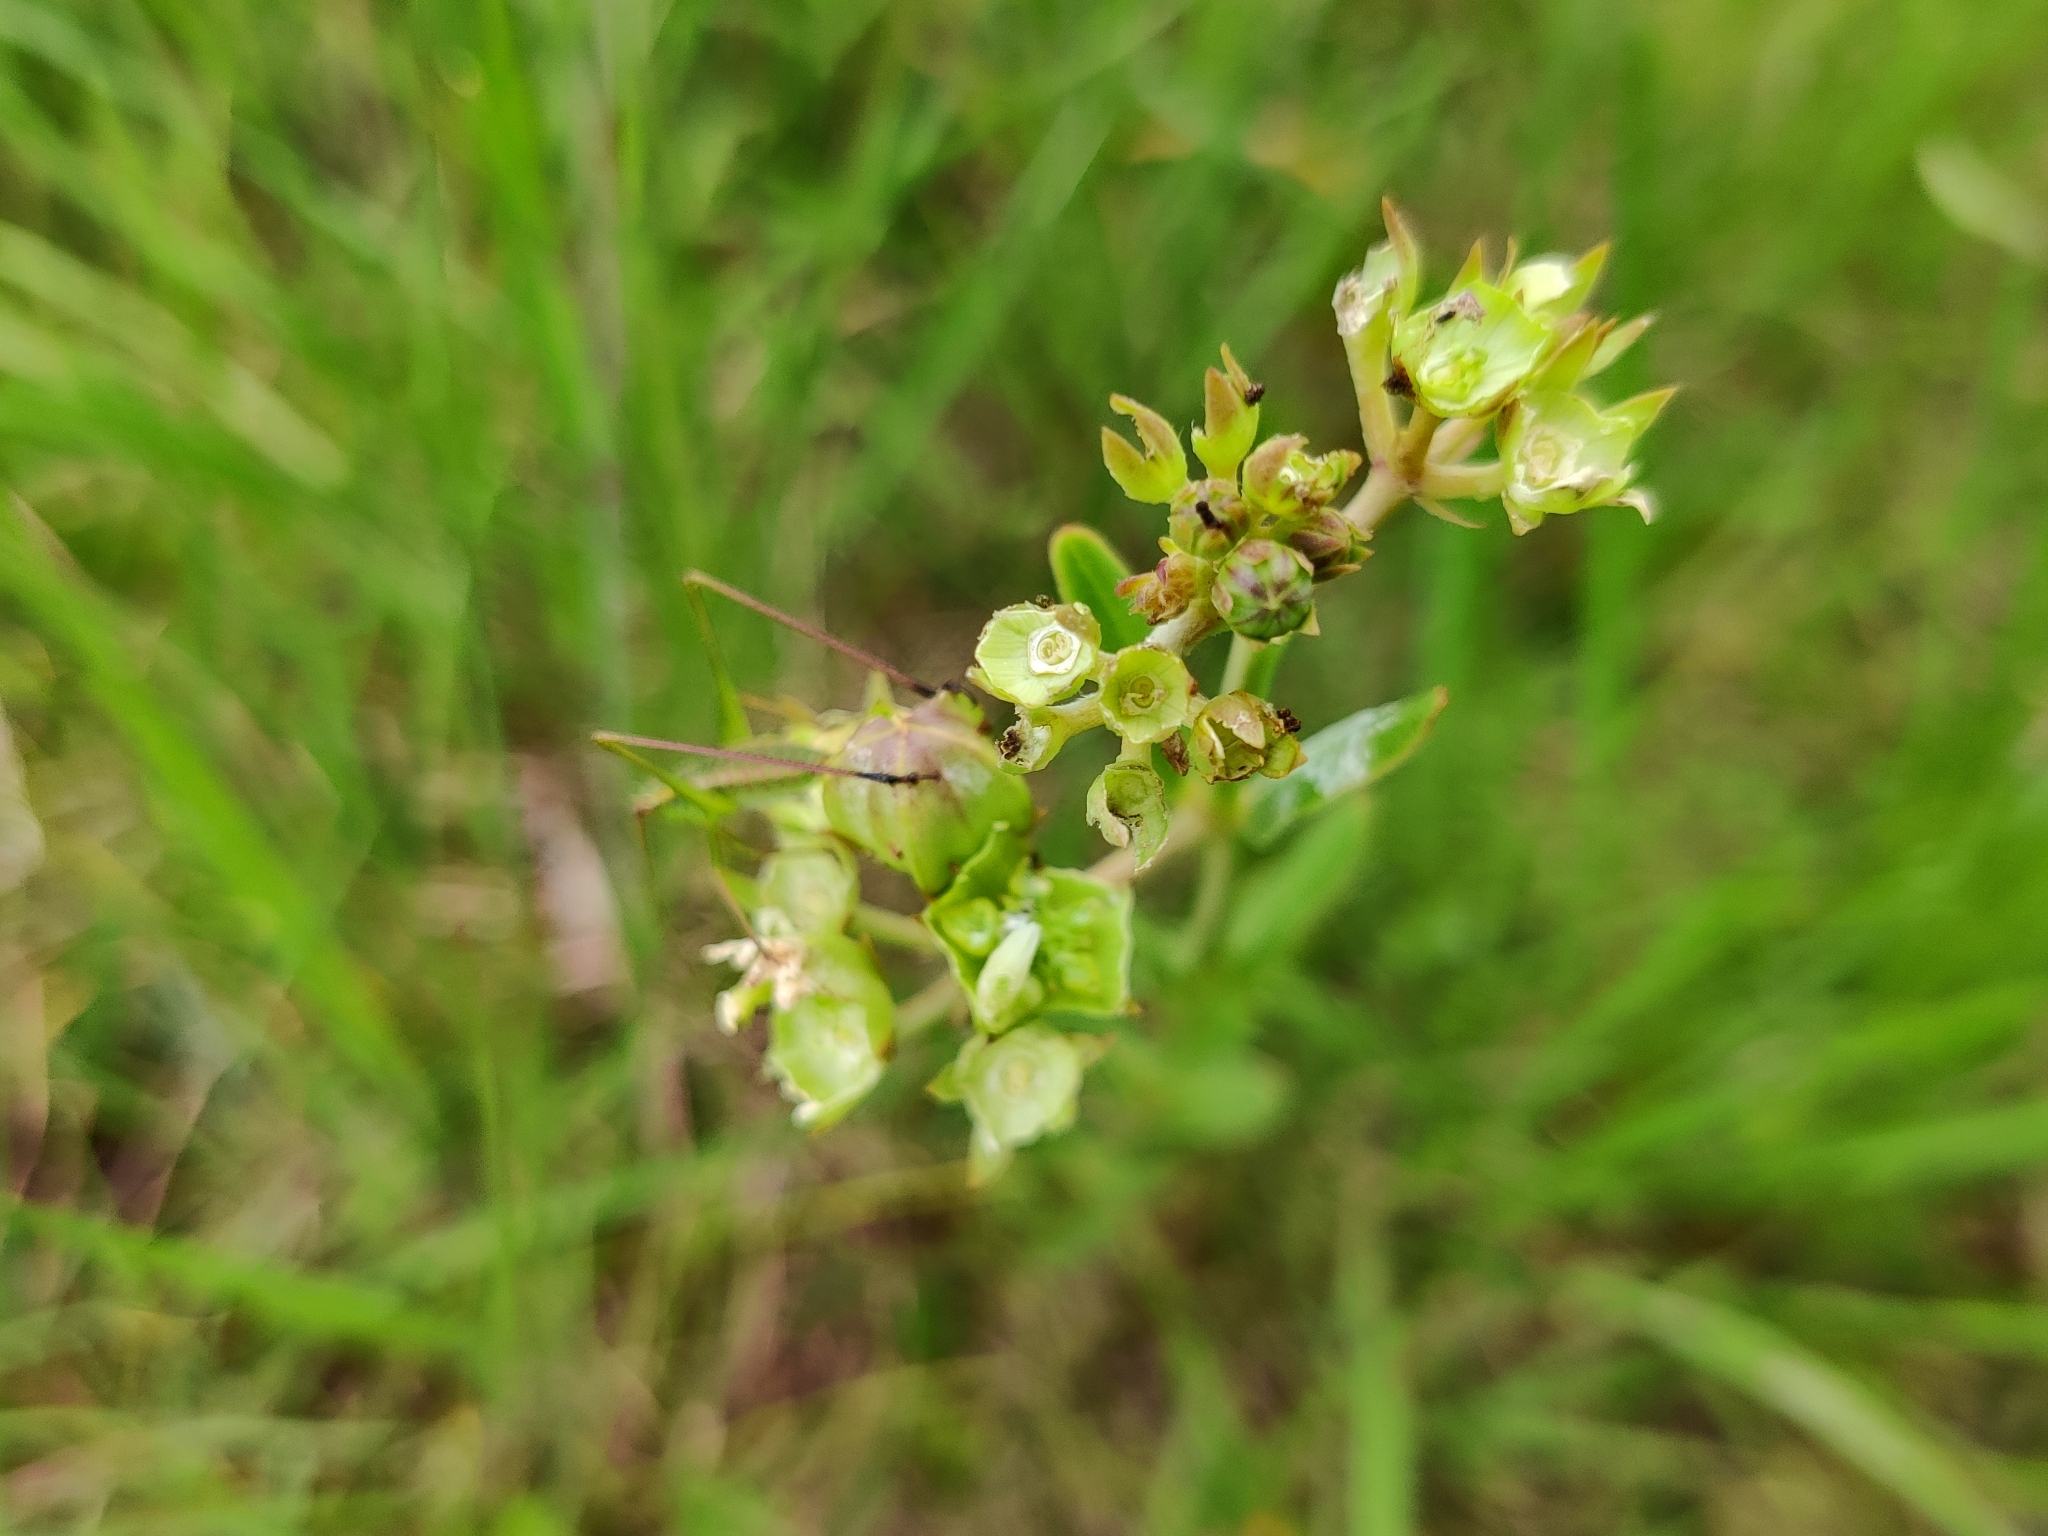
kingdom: Plantae
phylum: Tracheophyta
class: Magnoliopsida
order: Gentianales
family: Apocynaceae
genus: Asclepias
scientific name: Asclepias connivens
